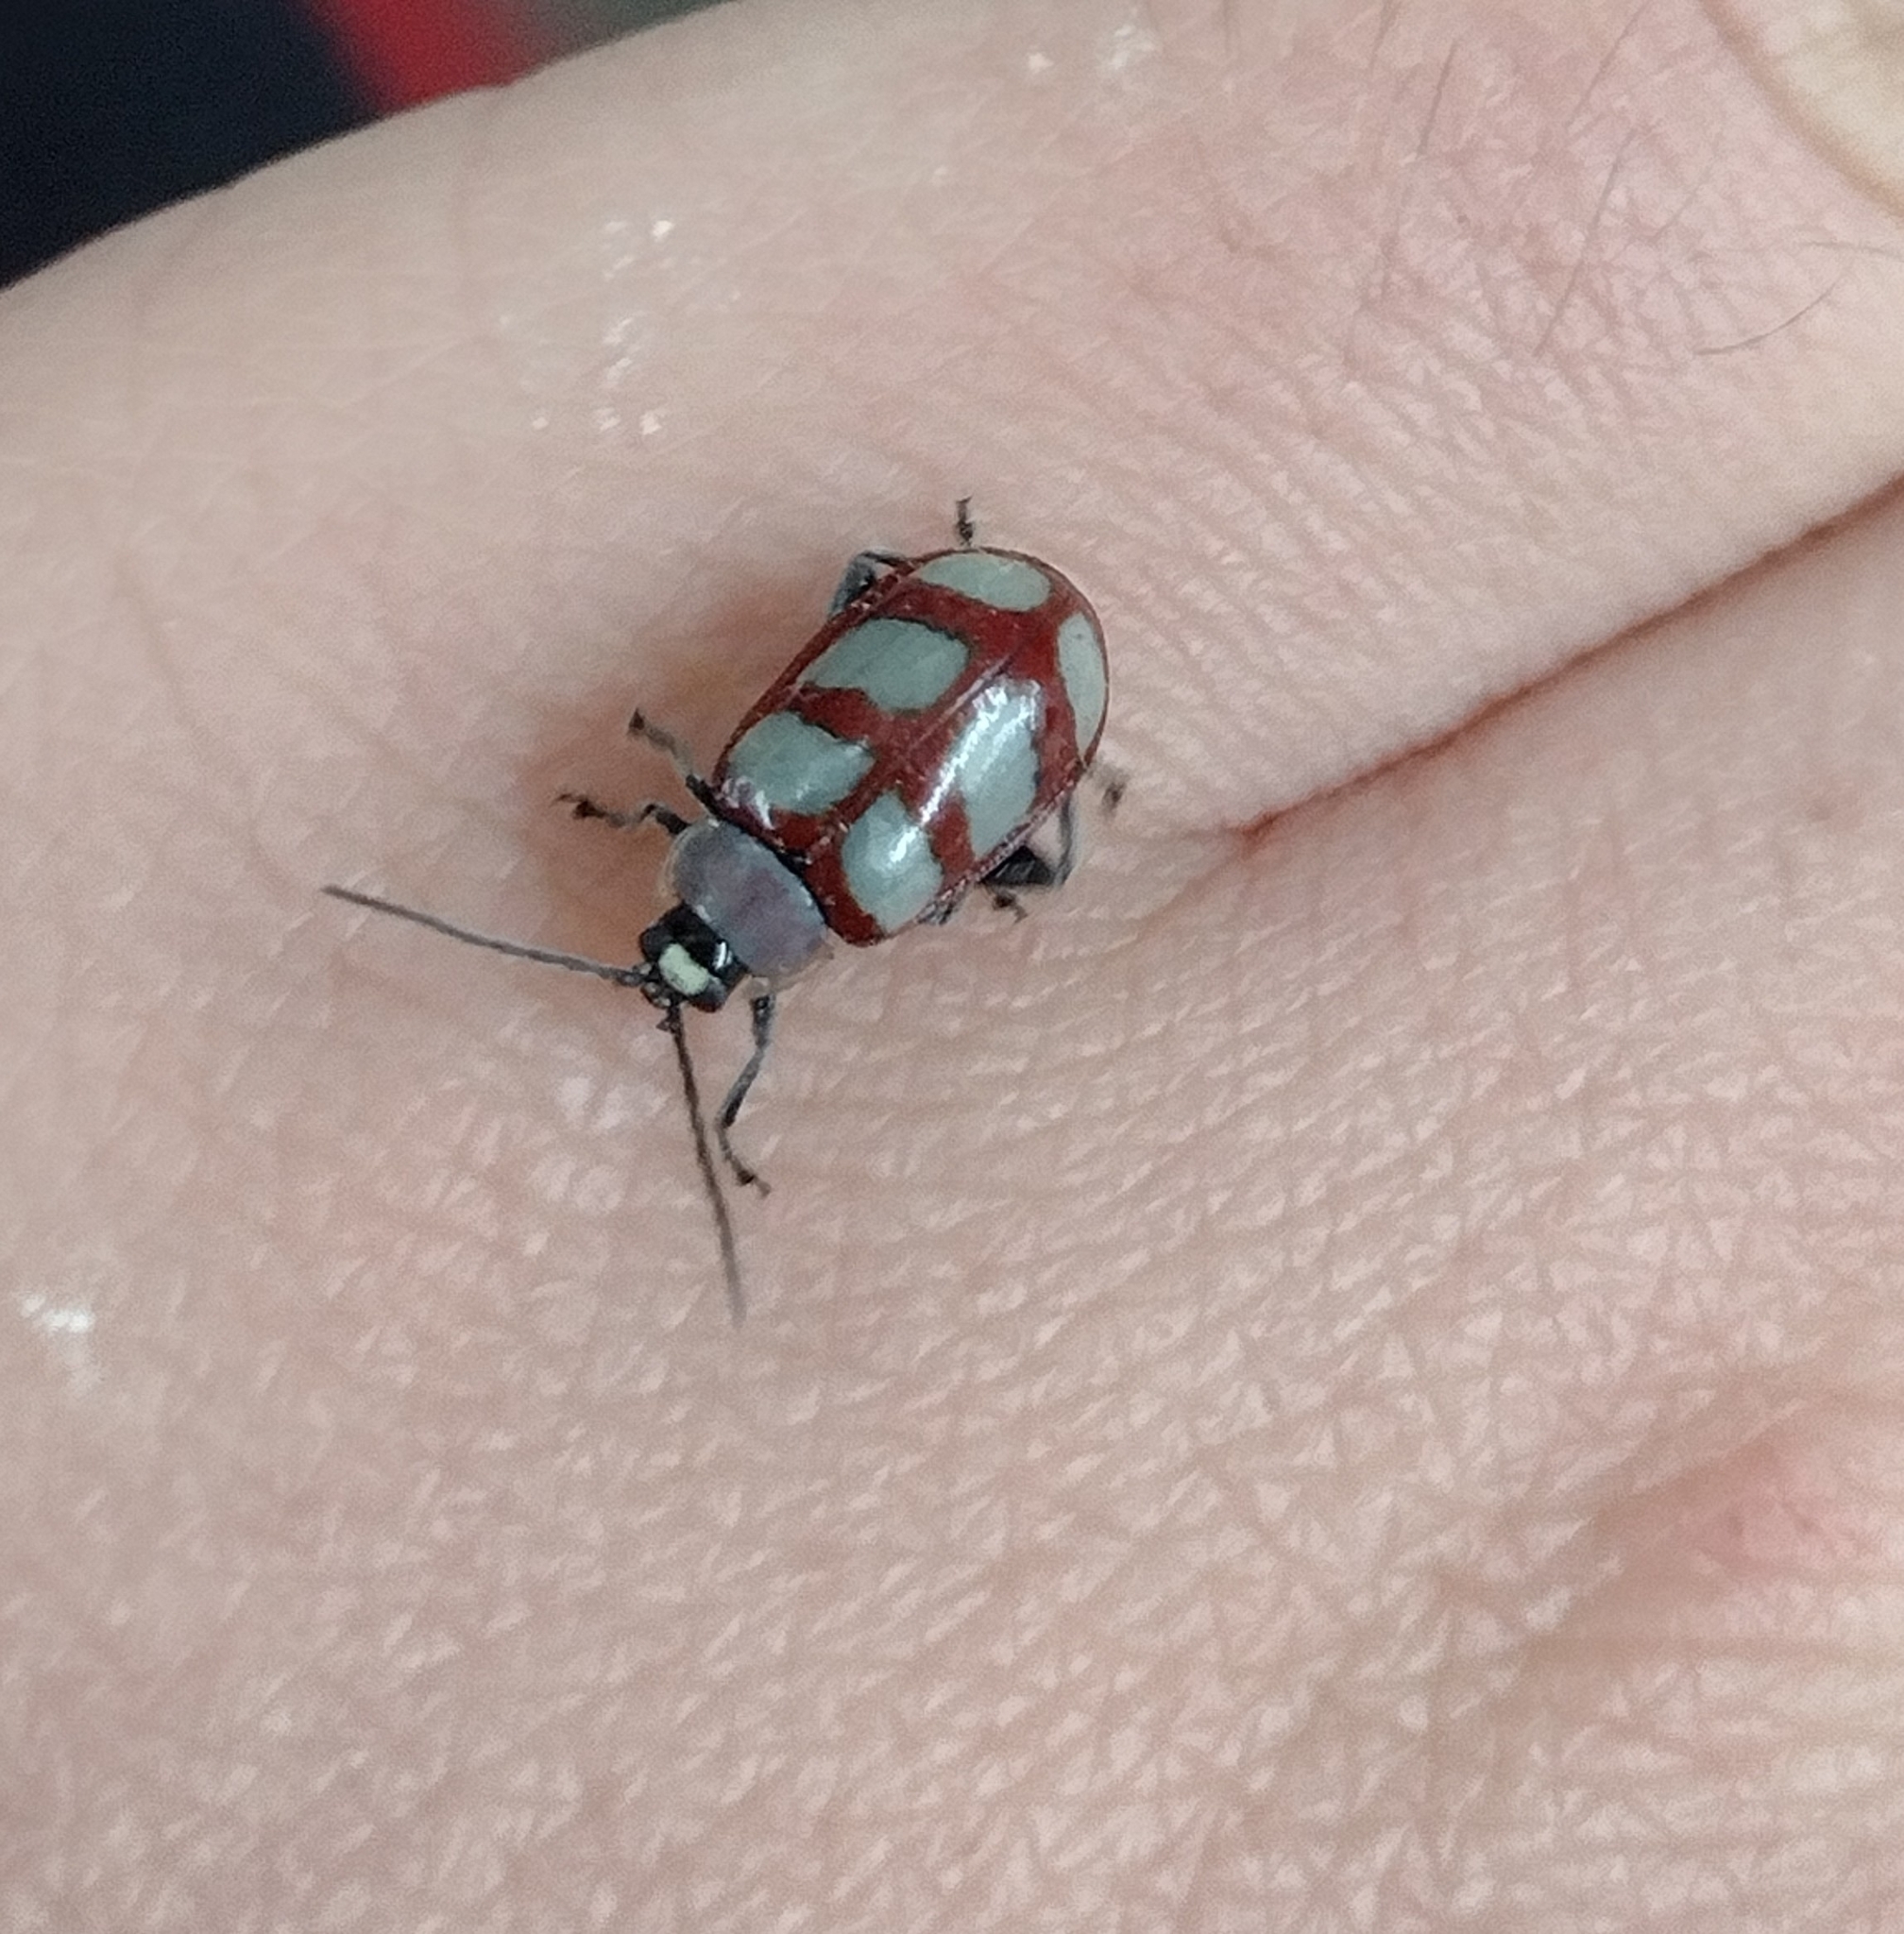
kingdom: Animalia
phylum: Arthropoda
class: Insecta
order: Coleoptera
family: Chrysomelidae
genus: Omophoita
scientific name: Omophoita personata
